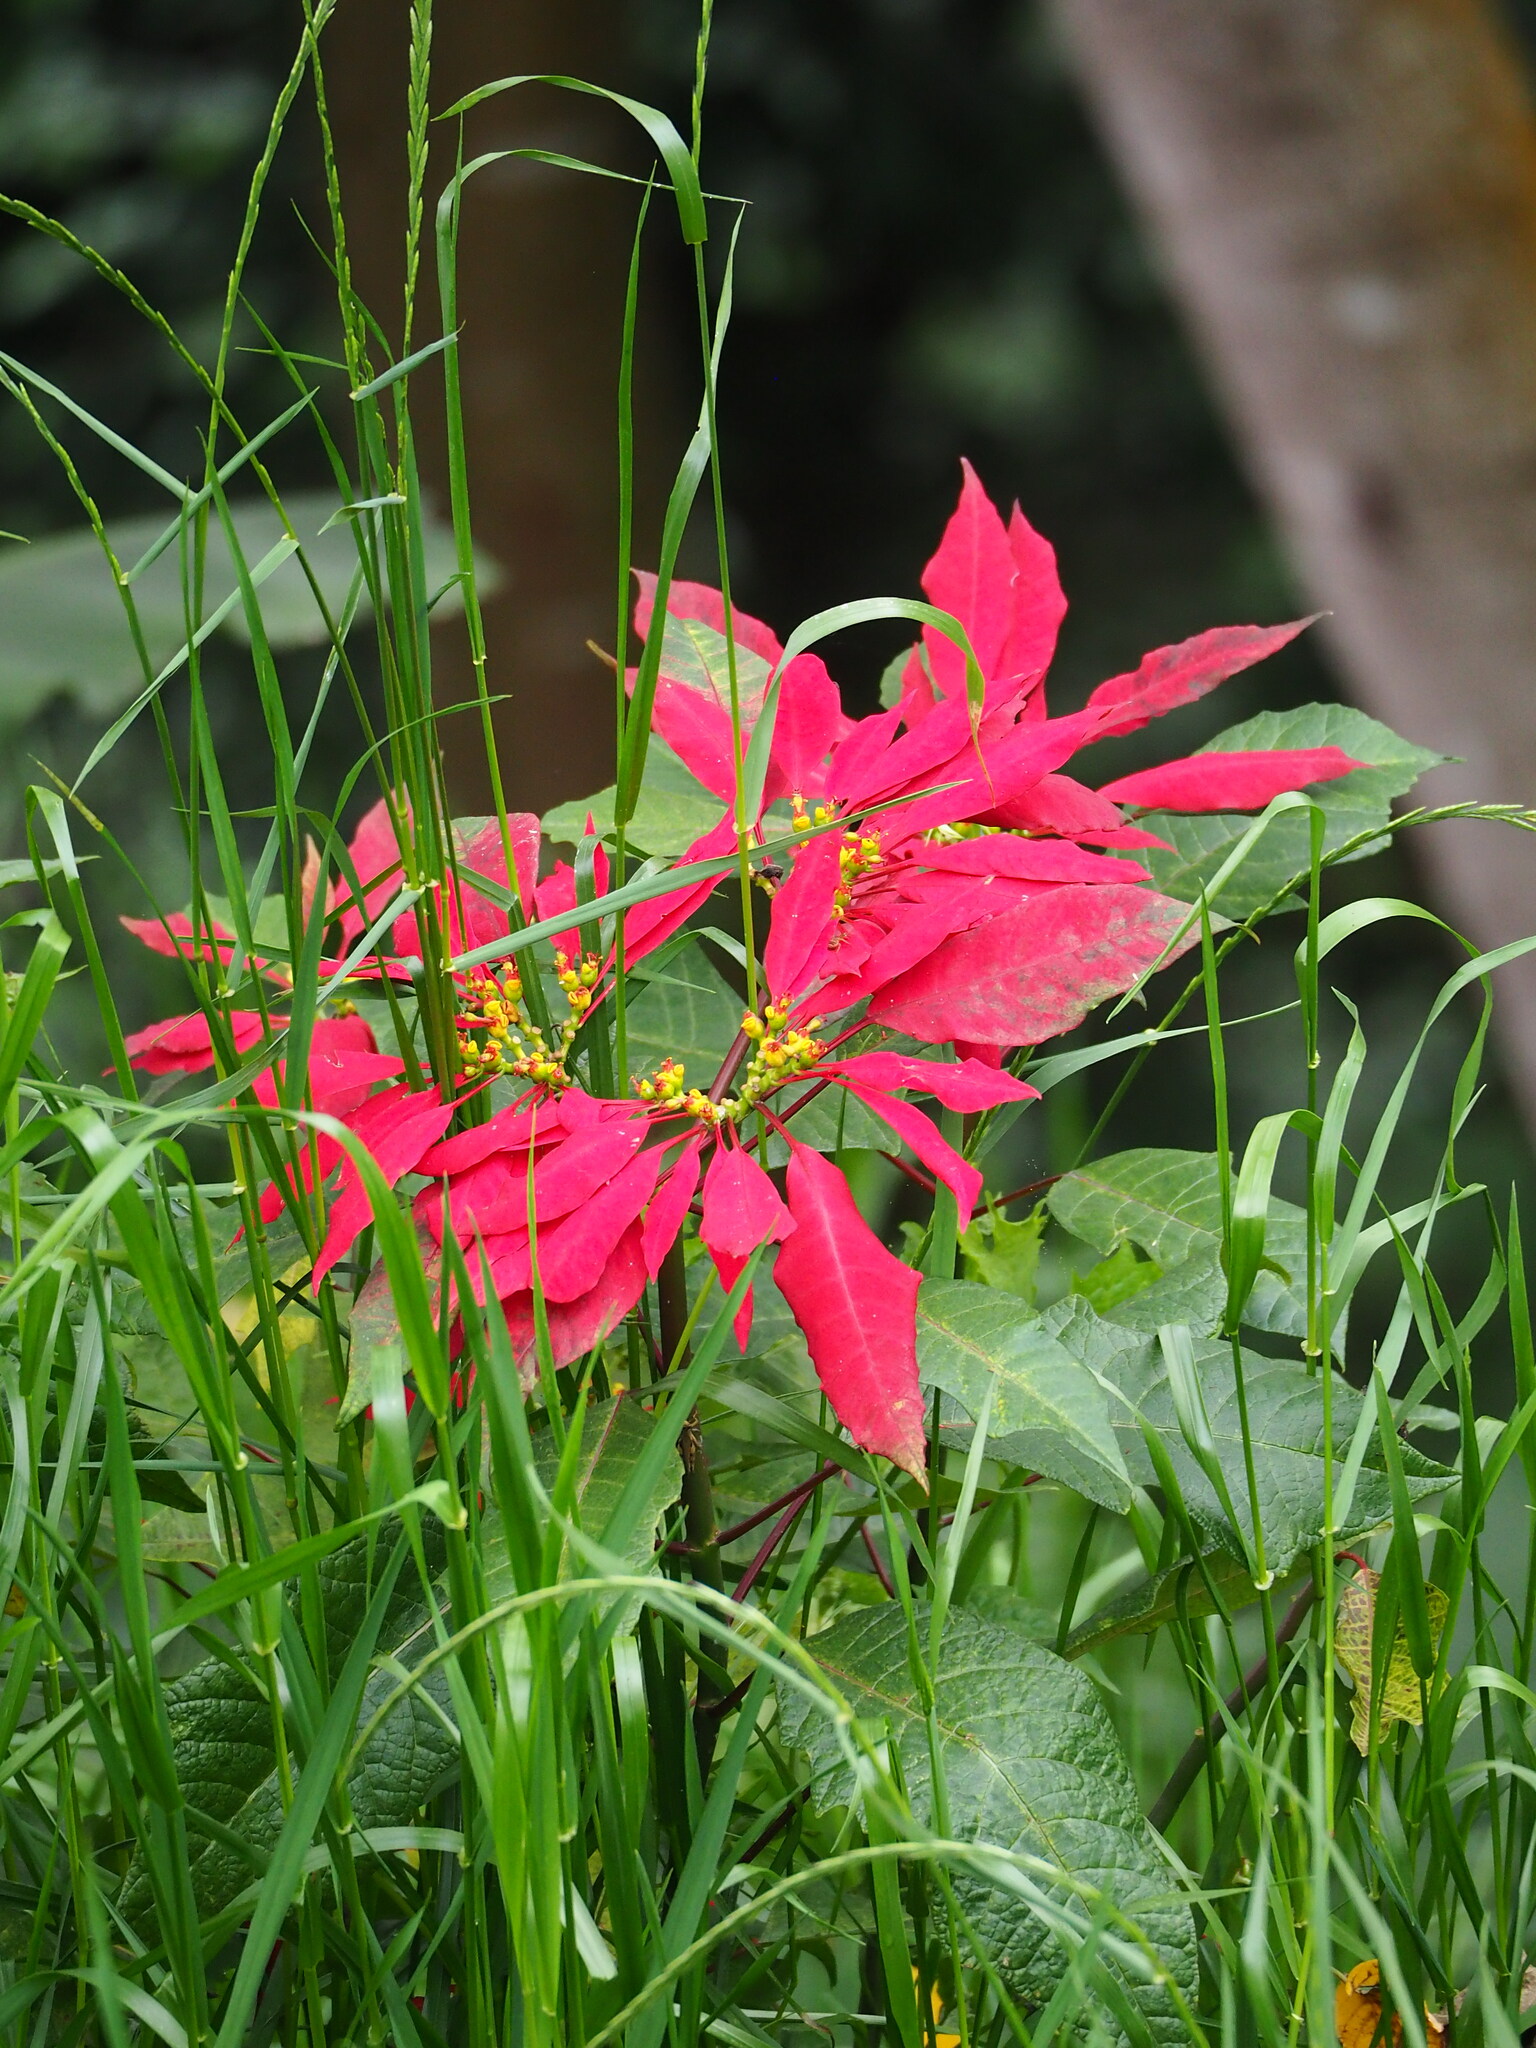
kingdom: Plantae
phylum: Tracheophyta
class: Magnoliopsida
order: Malpighiales
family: Euphorbiaceae
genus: Euphorbia
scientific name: Euphorbia pulcherrima
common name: Christmas-flower
